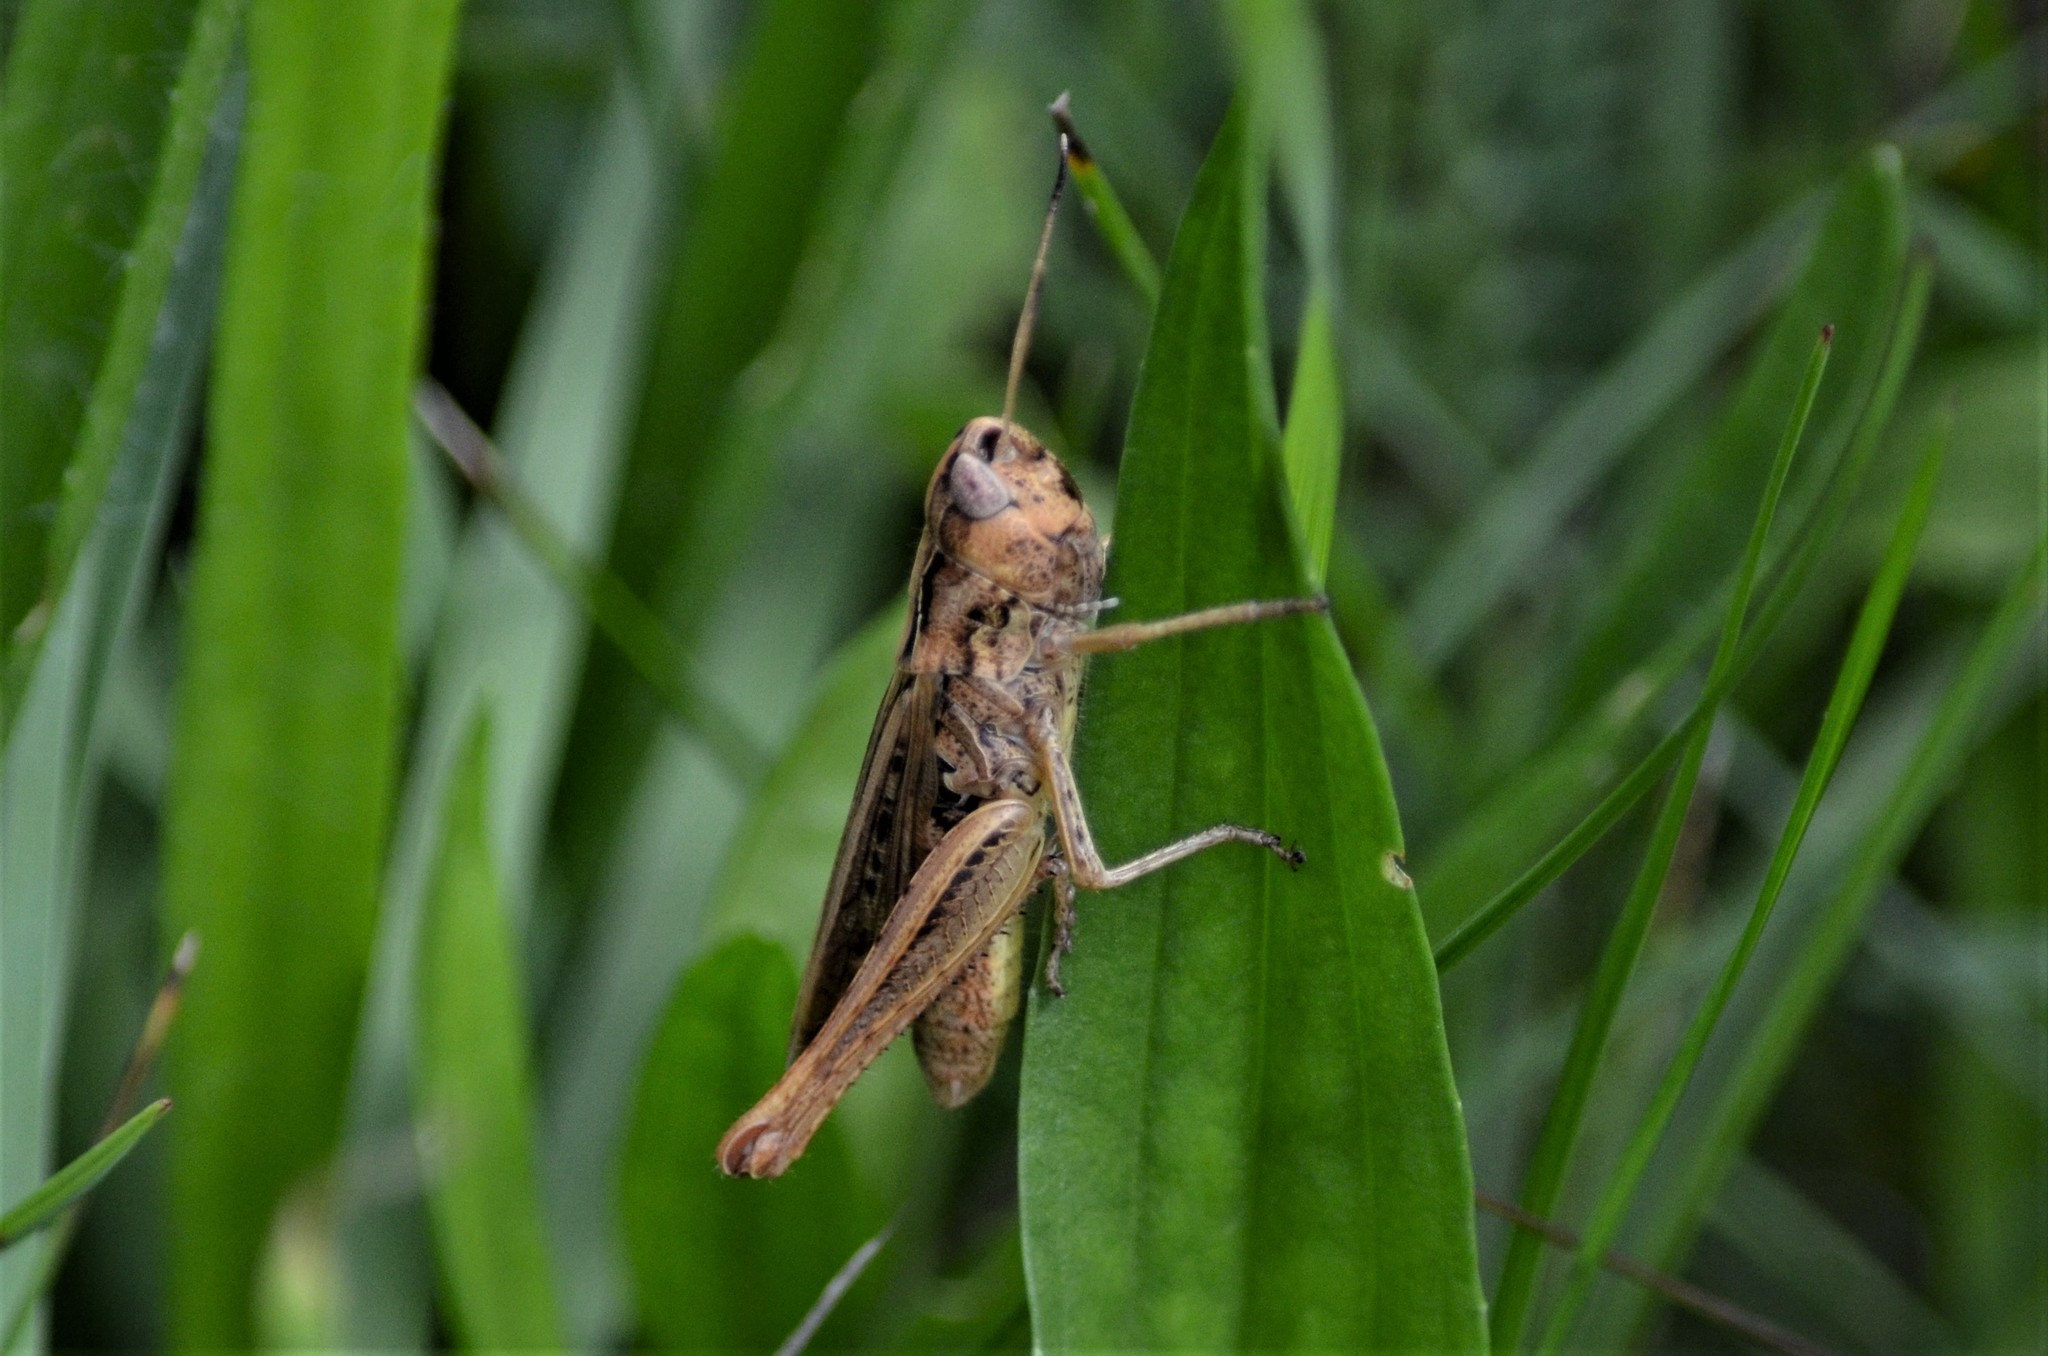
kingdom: Animalia
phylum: Arthropoda
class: Insecta
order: Orthoptera
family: Acrididae
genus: Gomphocerippus
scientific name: Gomphocerippus rufus
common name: Rufous grasshopper
